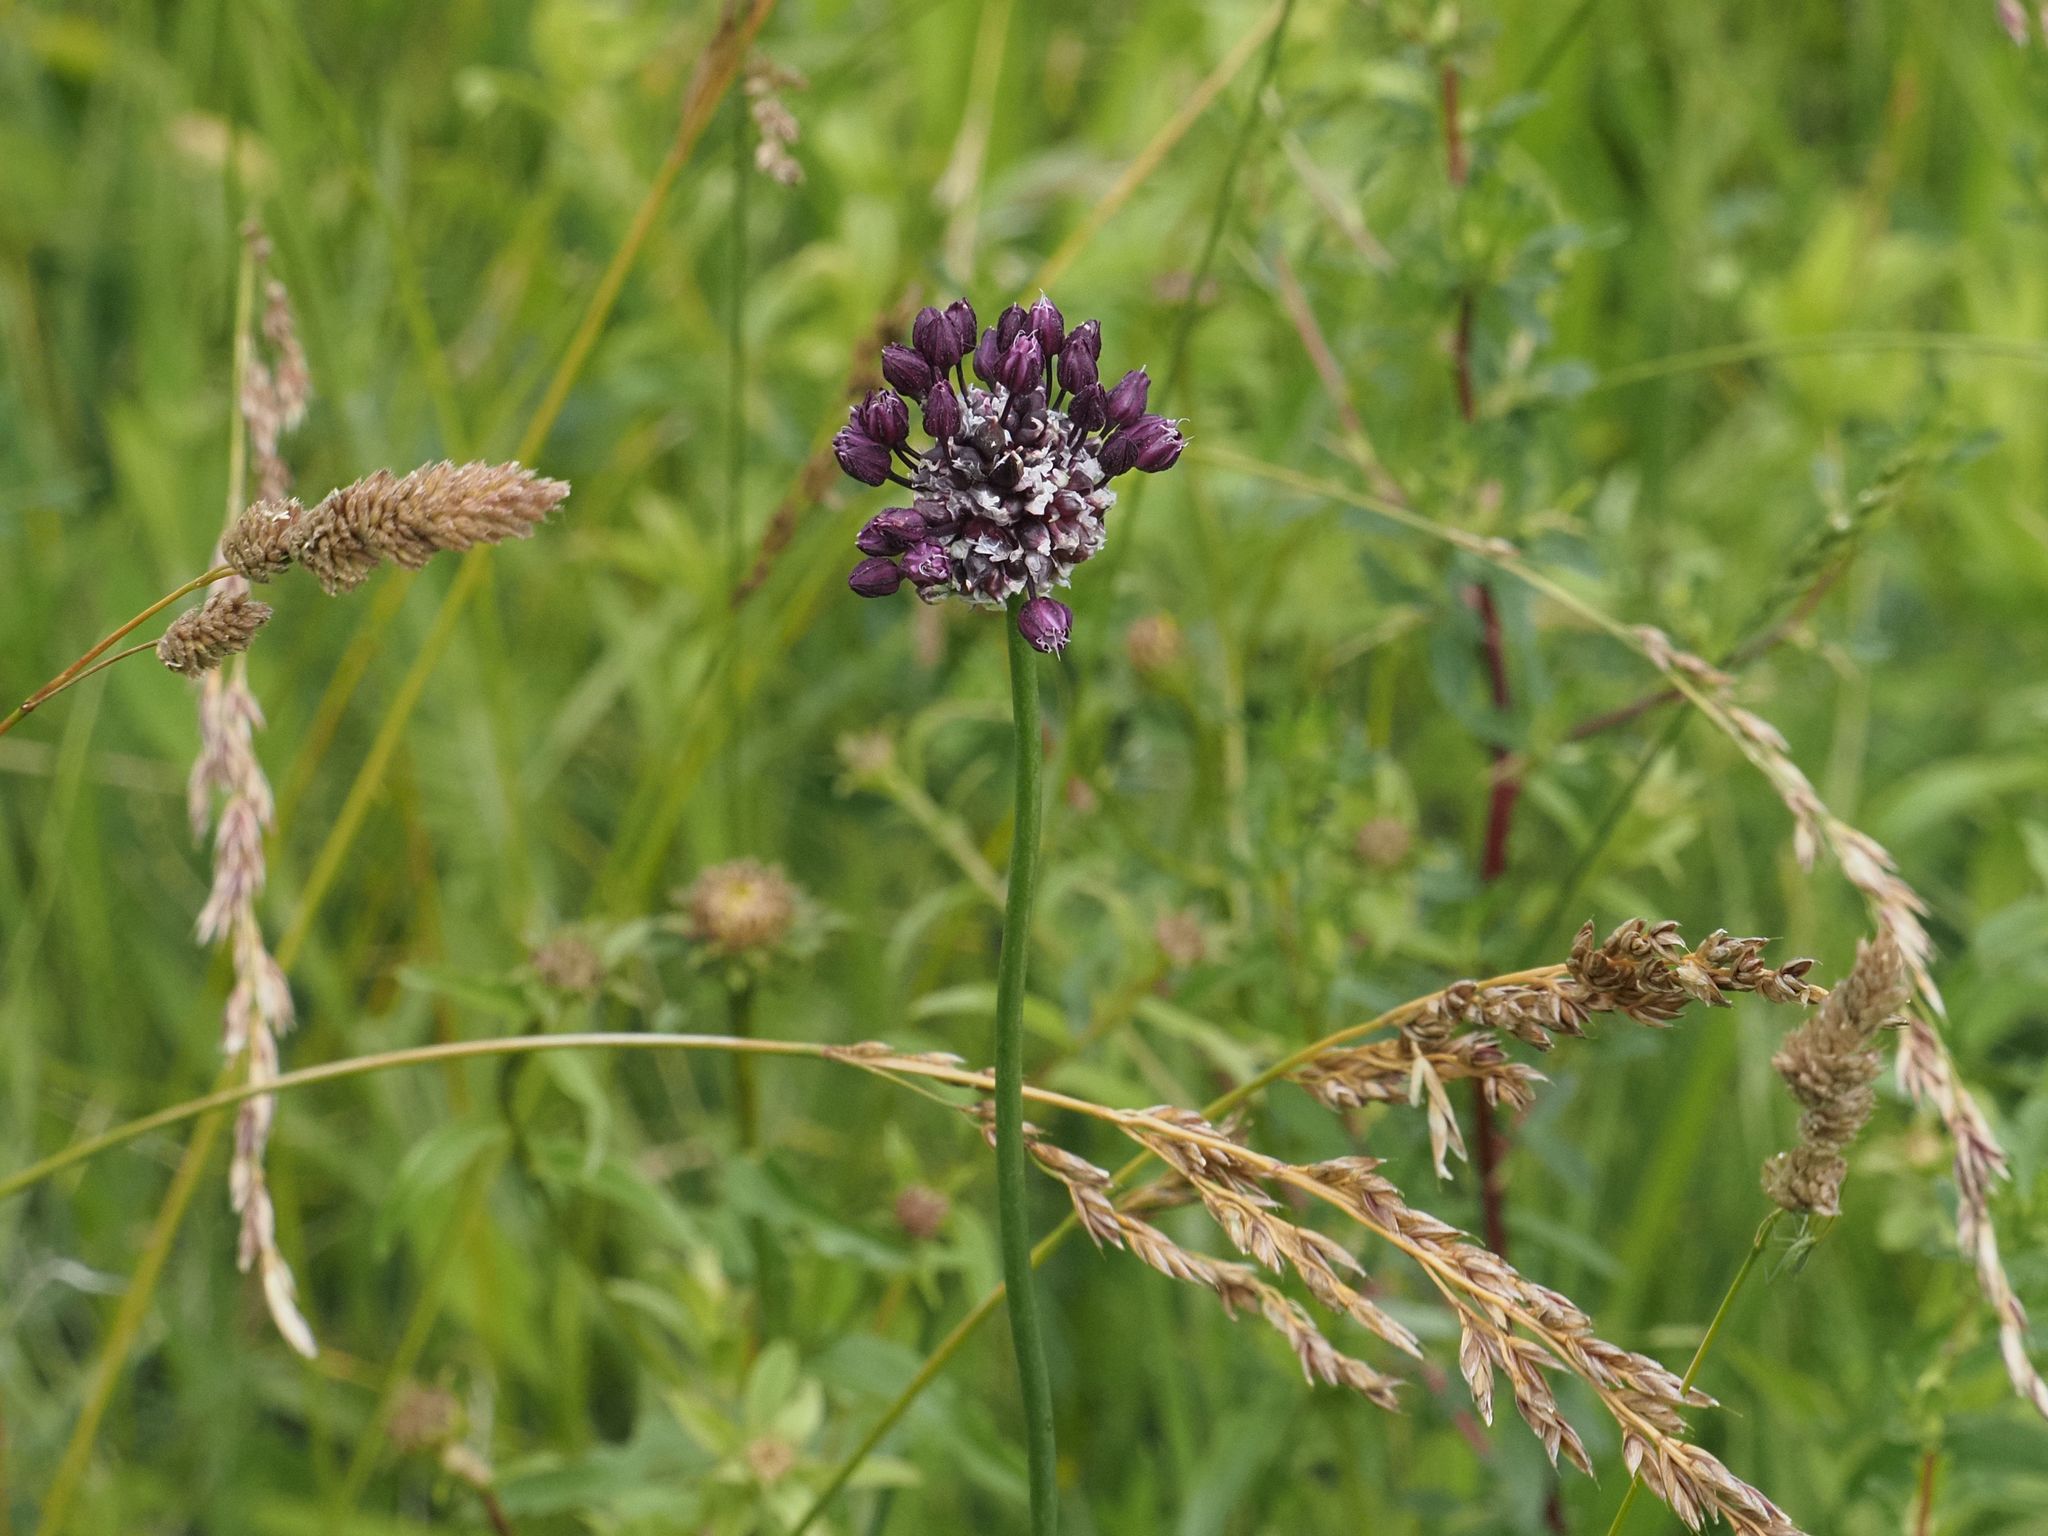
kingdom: Plantae
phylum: Tracheophyta
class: Liliopsida
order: Asparagales
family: Amaryllidaceae
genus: Allium
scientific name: Allium scorodoprasum
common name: Sand leek
